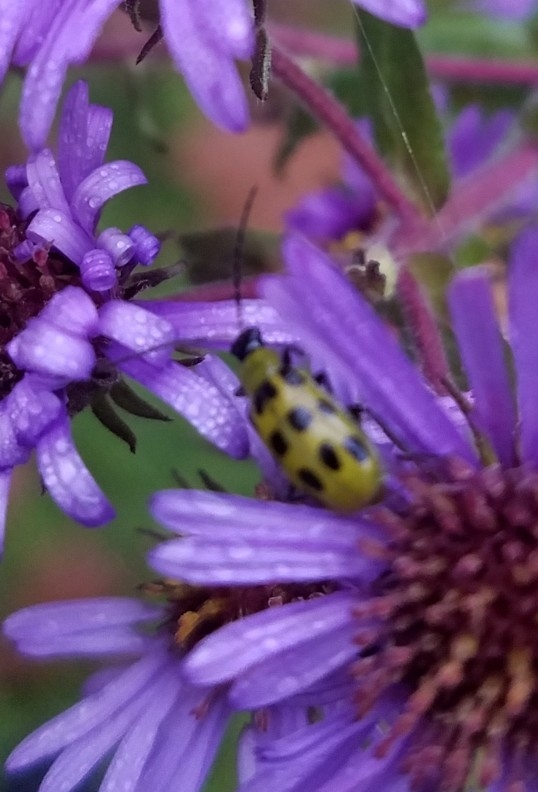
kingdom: Animalia
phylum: Arthropoda
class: Insecta
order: Coleoptera
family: Chrysomelidae
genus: Diabrotica
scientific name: Diabrotica undecimpunctata
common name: Spotted cucumber beetle
